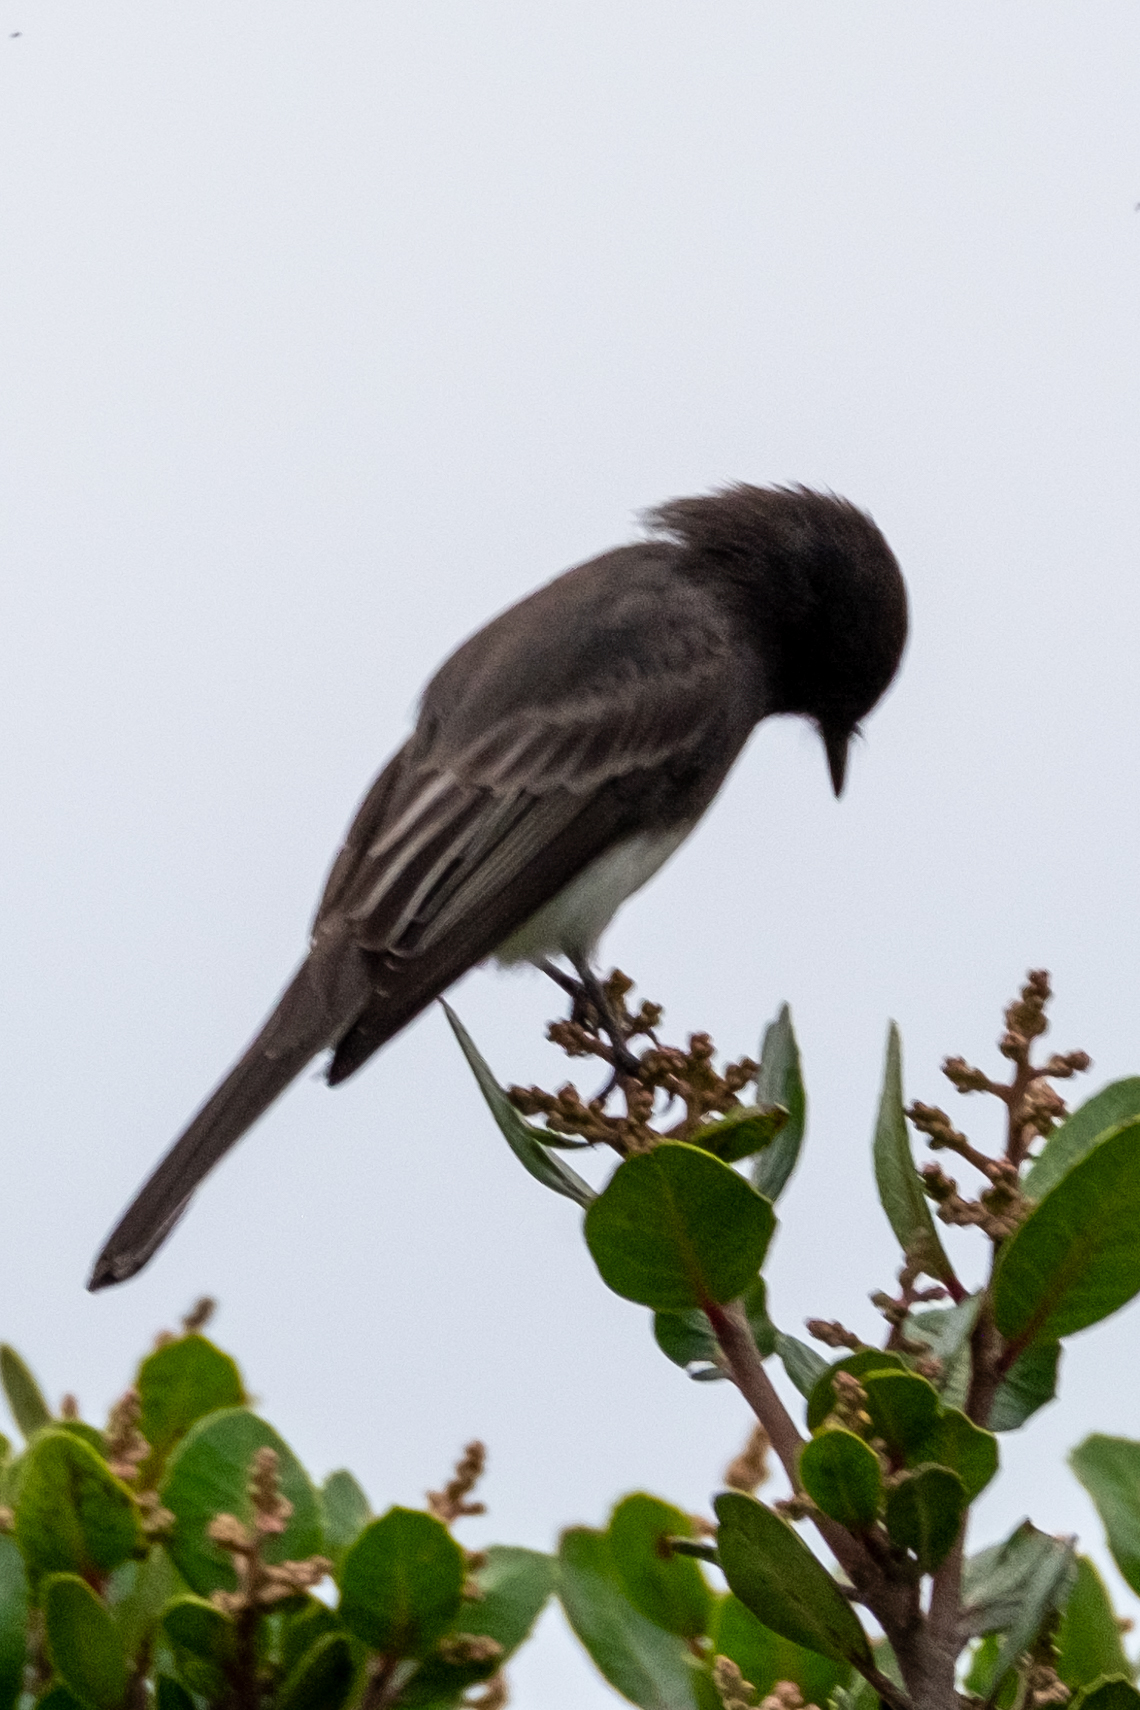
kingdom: Animalia
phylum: Chordata
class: Aves
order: Passeriformes
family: Tyrannidae
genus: Sayornis
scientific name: Sayornis nigricans
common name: Black phoebe
